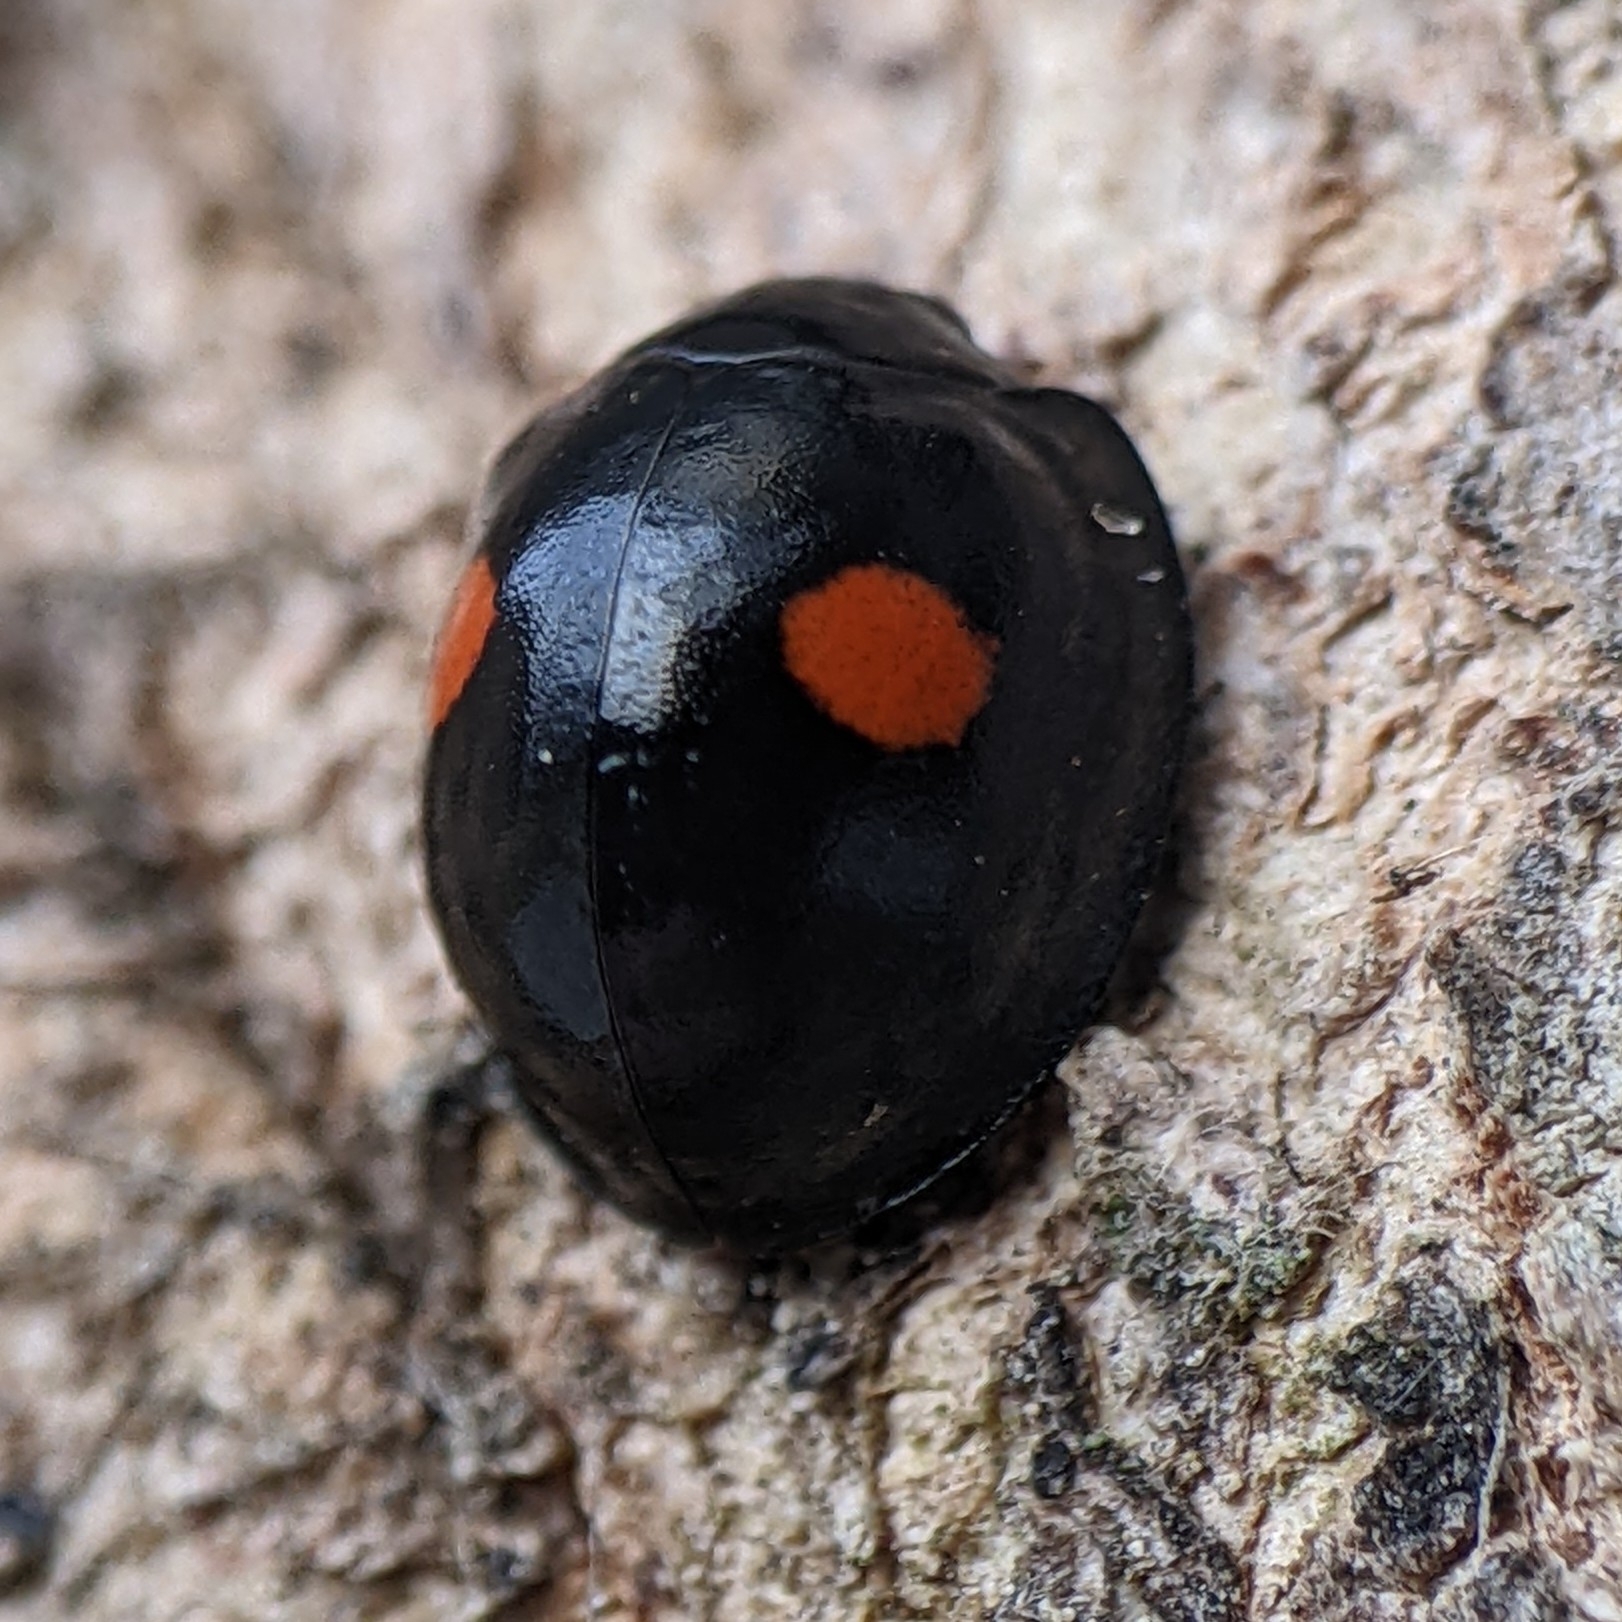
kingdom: Animalia
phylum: Arthropoda
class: Insecta
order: Coleoptera
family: Coccinellidae
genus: Chilocorus
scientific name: Chilocorus stigma
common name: Twicestabbed lady beetle
